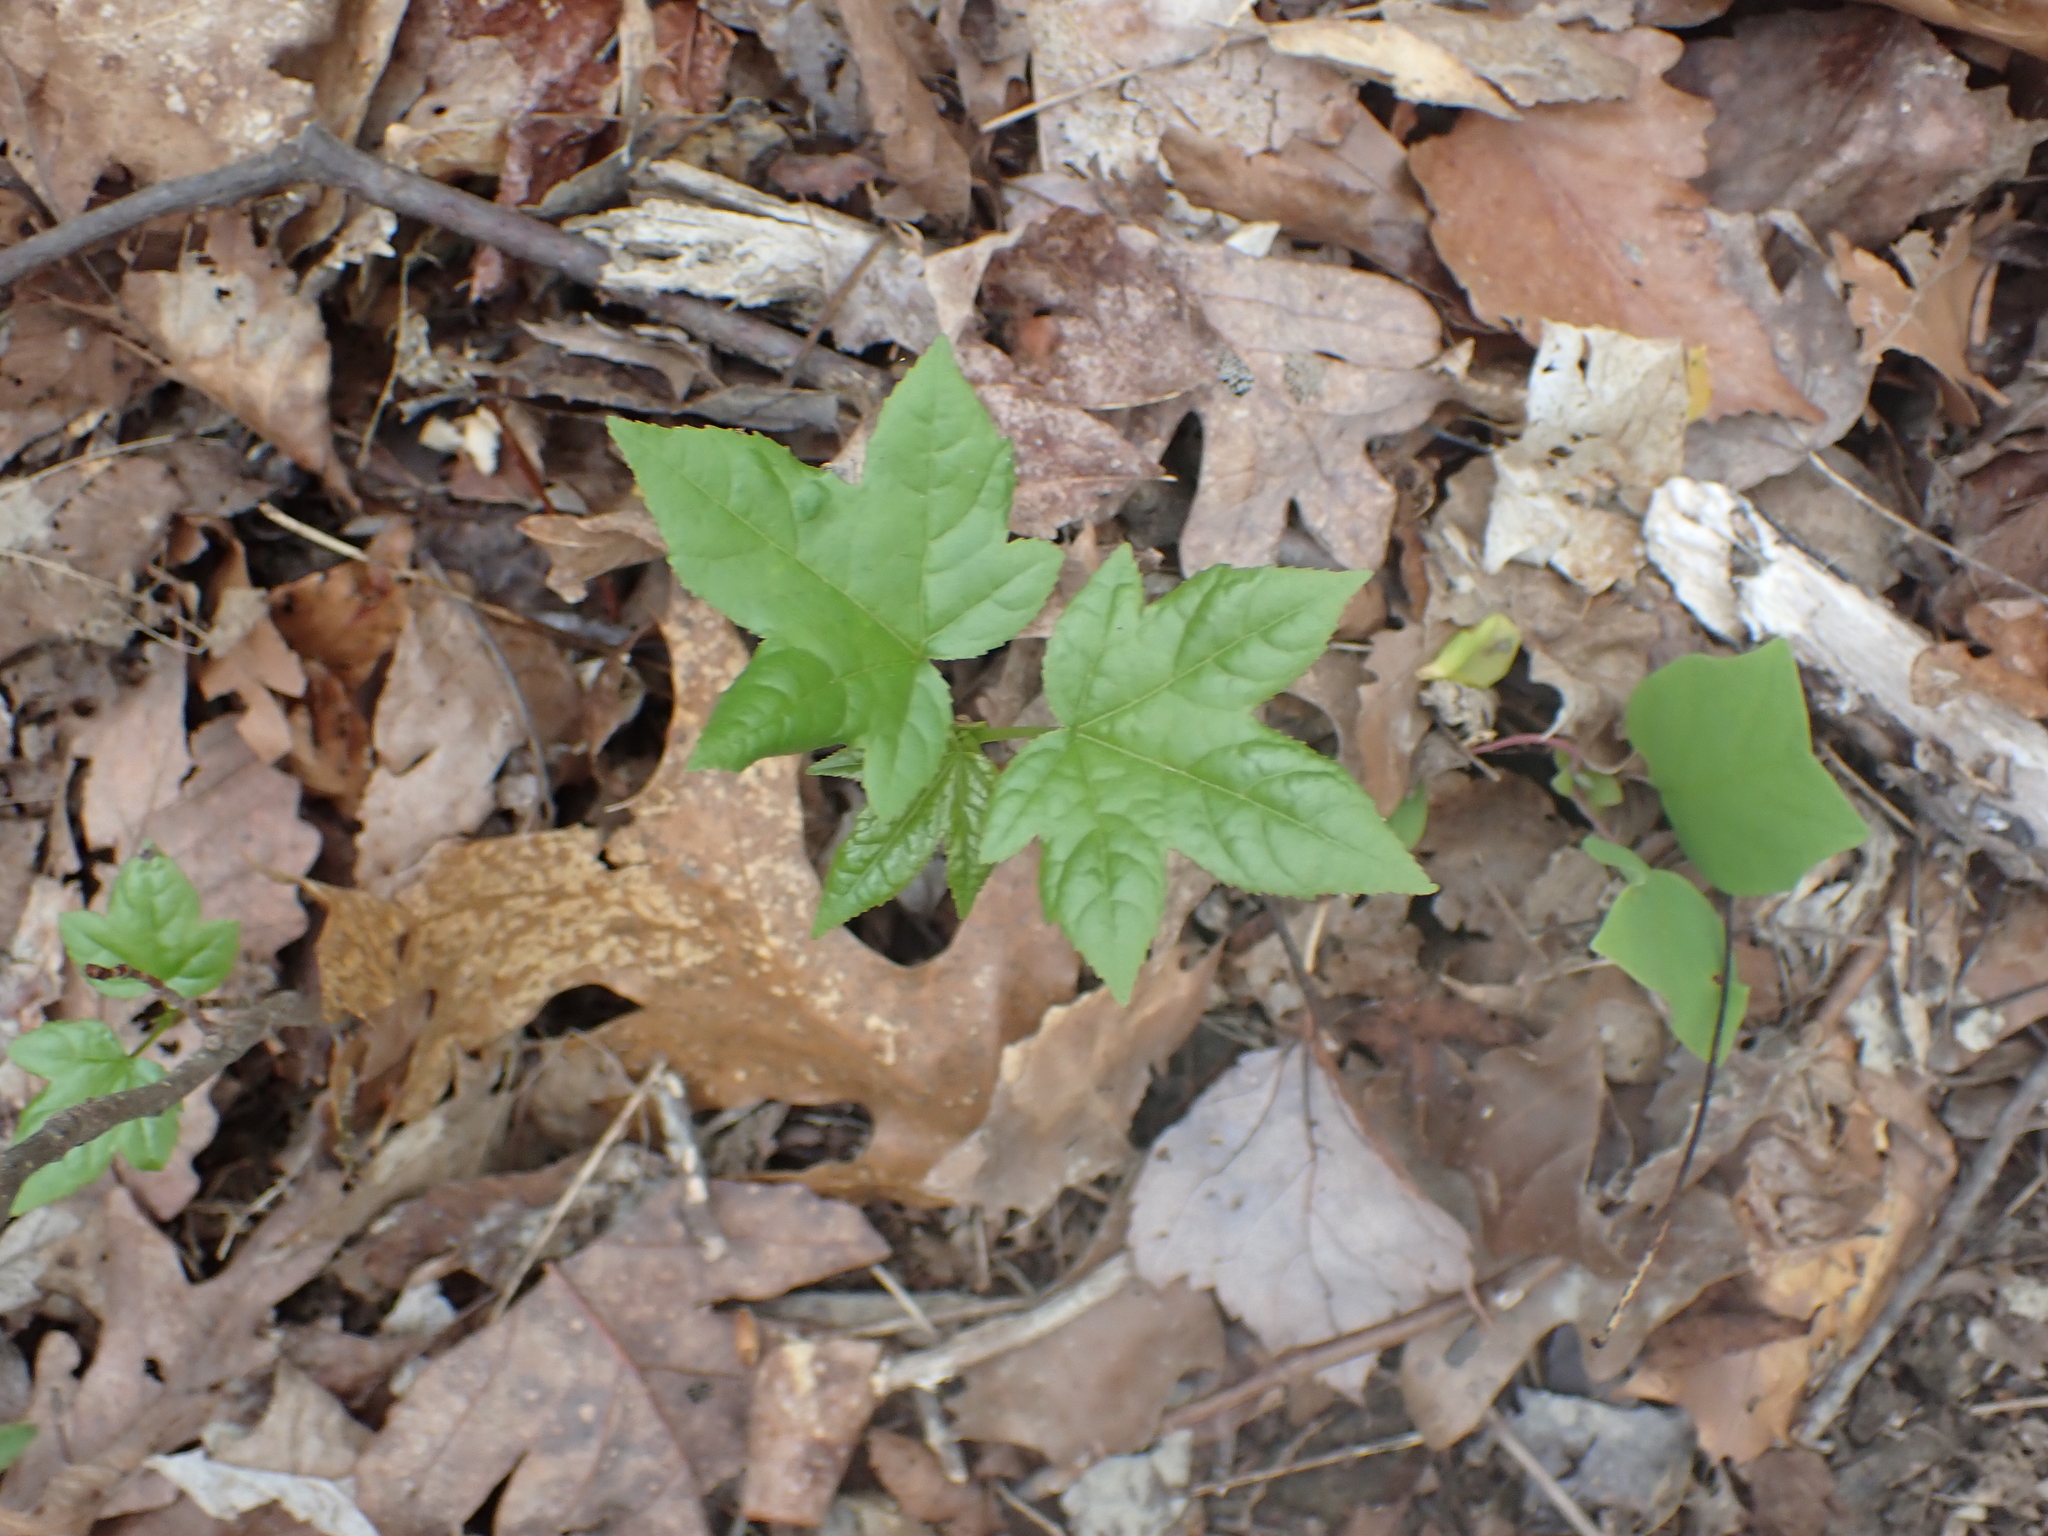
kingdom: Plantae
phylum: Tracheophyta
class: Magnoliopsida
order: Saxifragales
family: Altingiaceae
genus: Liquidambar
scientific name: Liquidambar styraciflua
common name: Sweet gum
